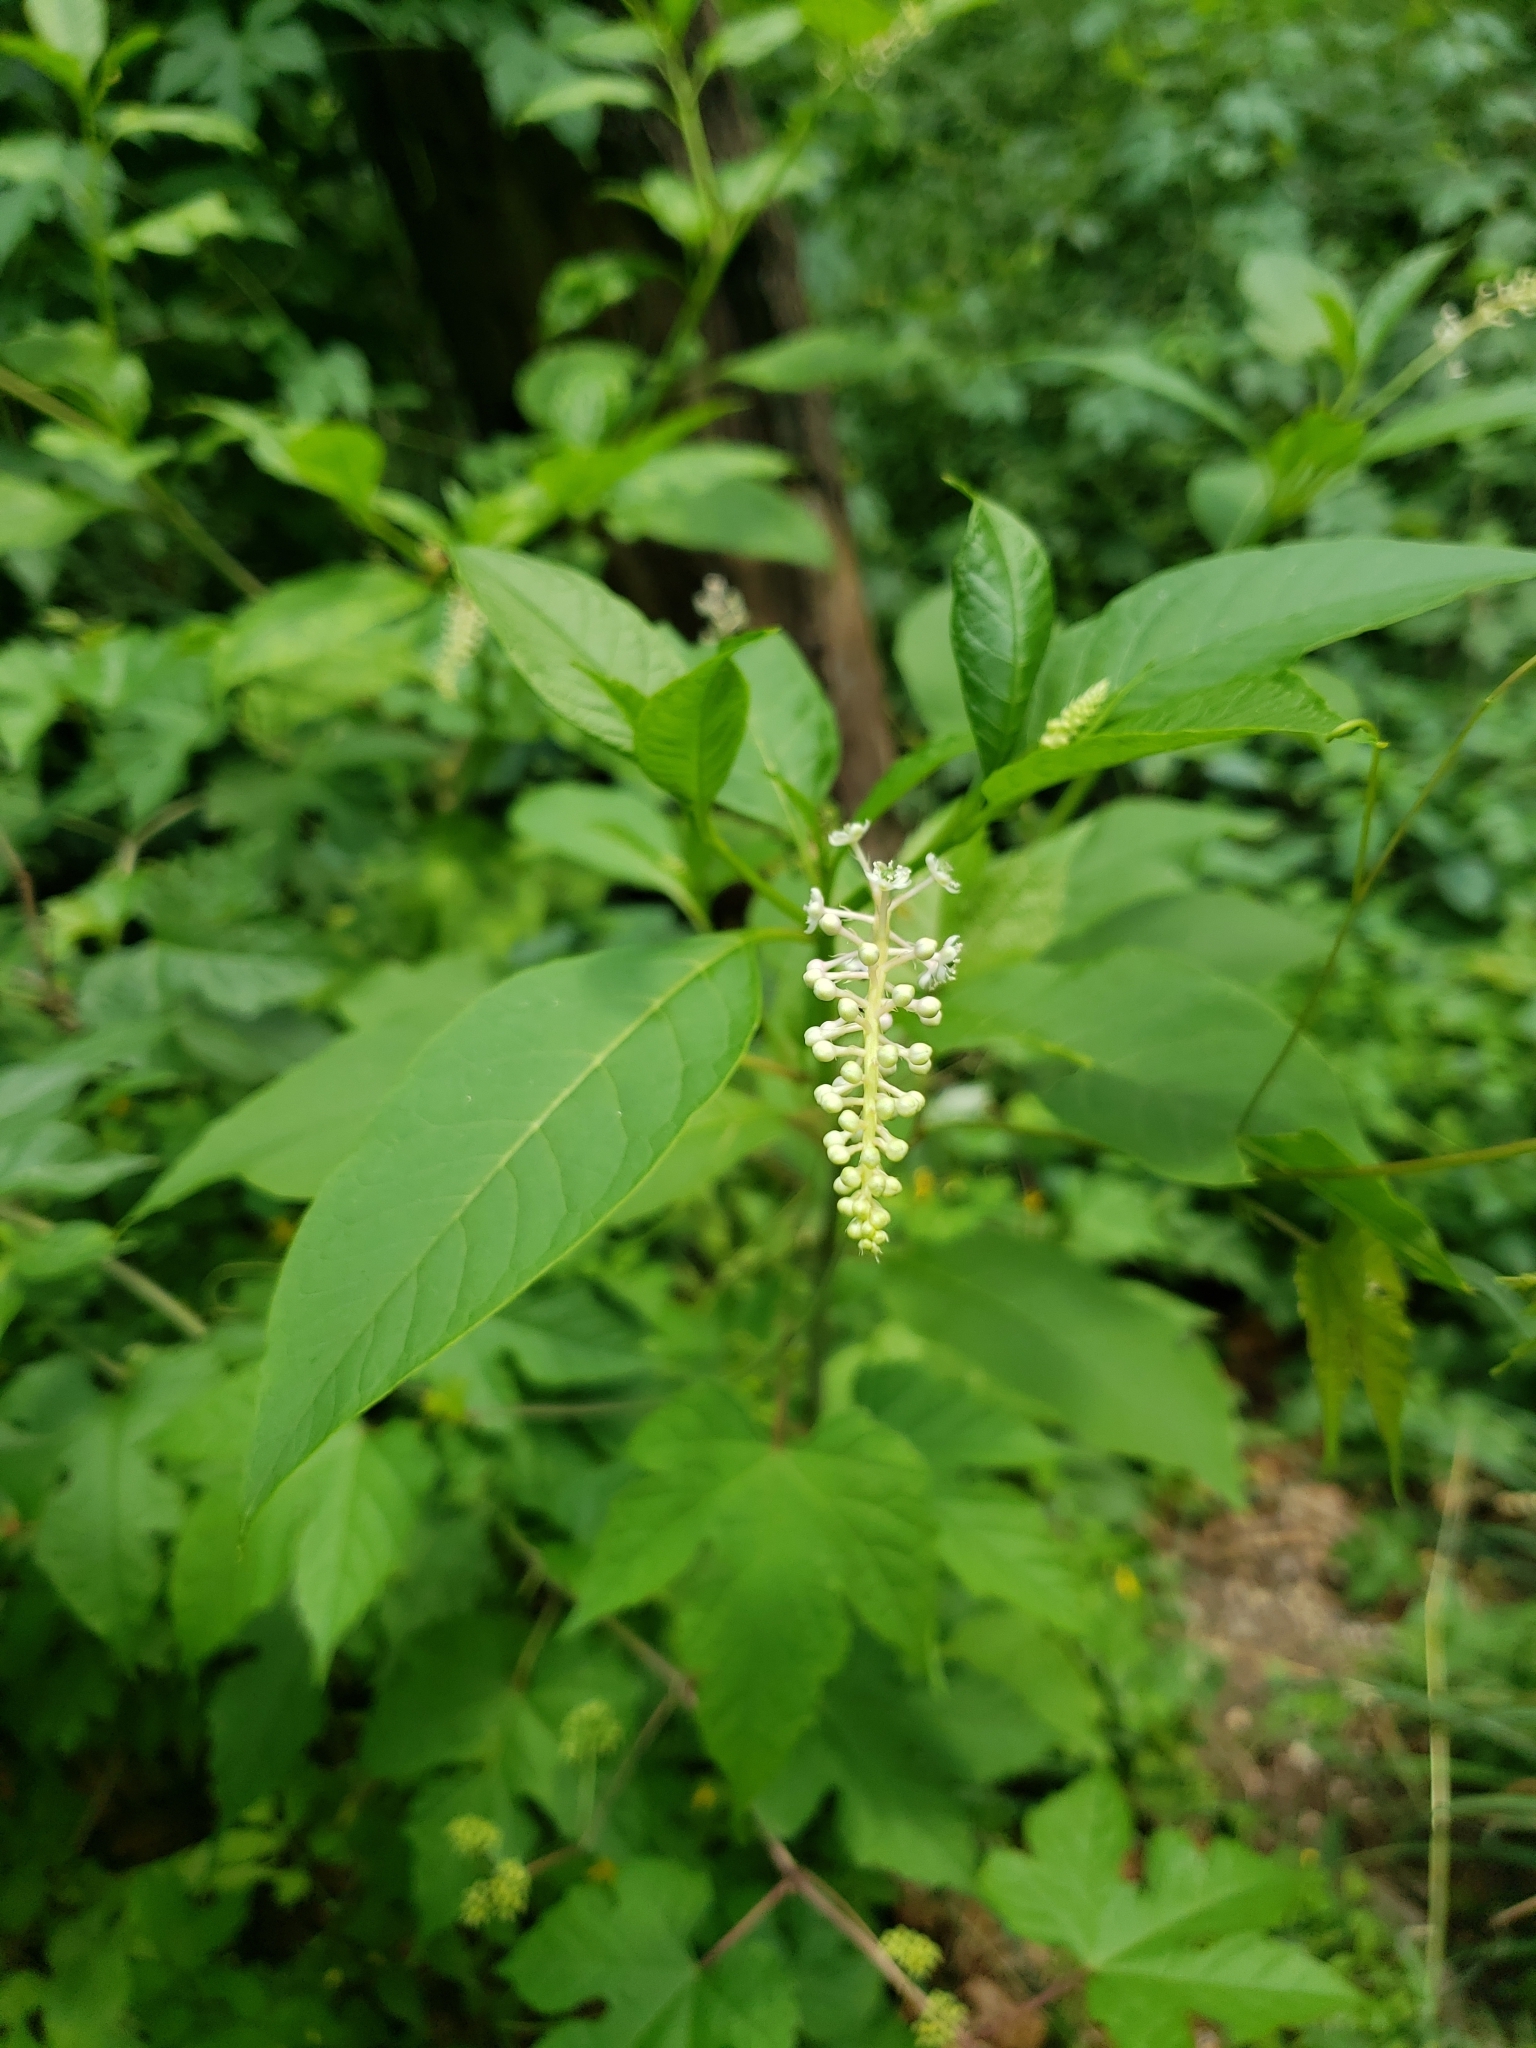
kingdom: Plantae
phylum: Tracheophyta
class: Magnoliopsida
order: Caryophyllales
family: Phytolaccaceae
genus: Phytolacca
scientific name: Phytolacca americana
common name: American pokeweed
